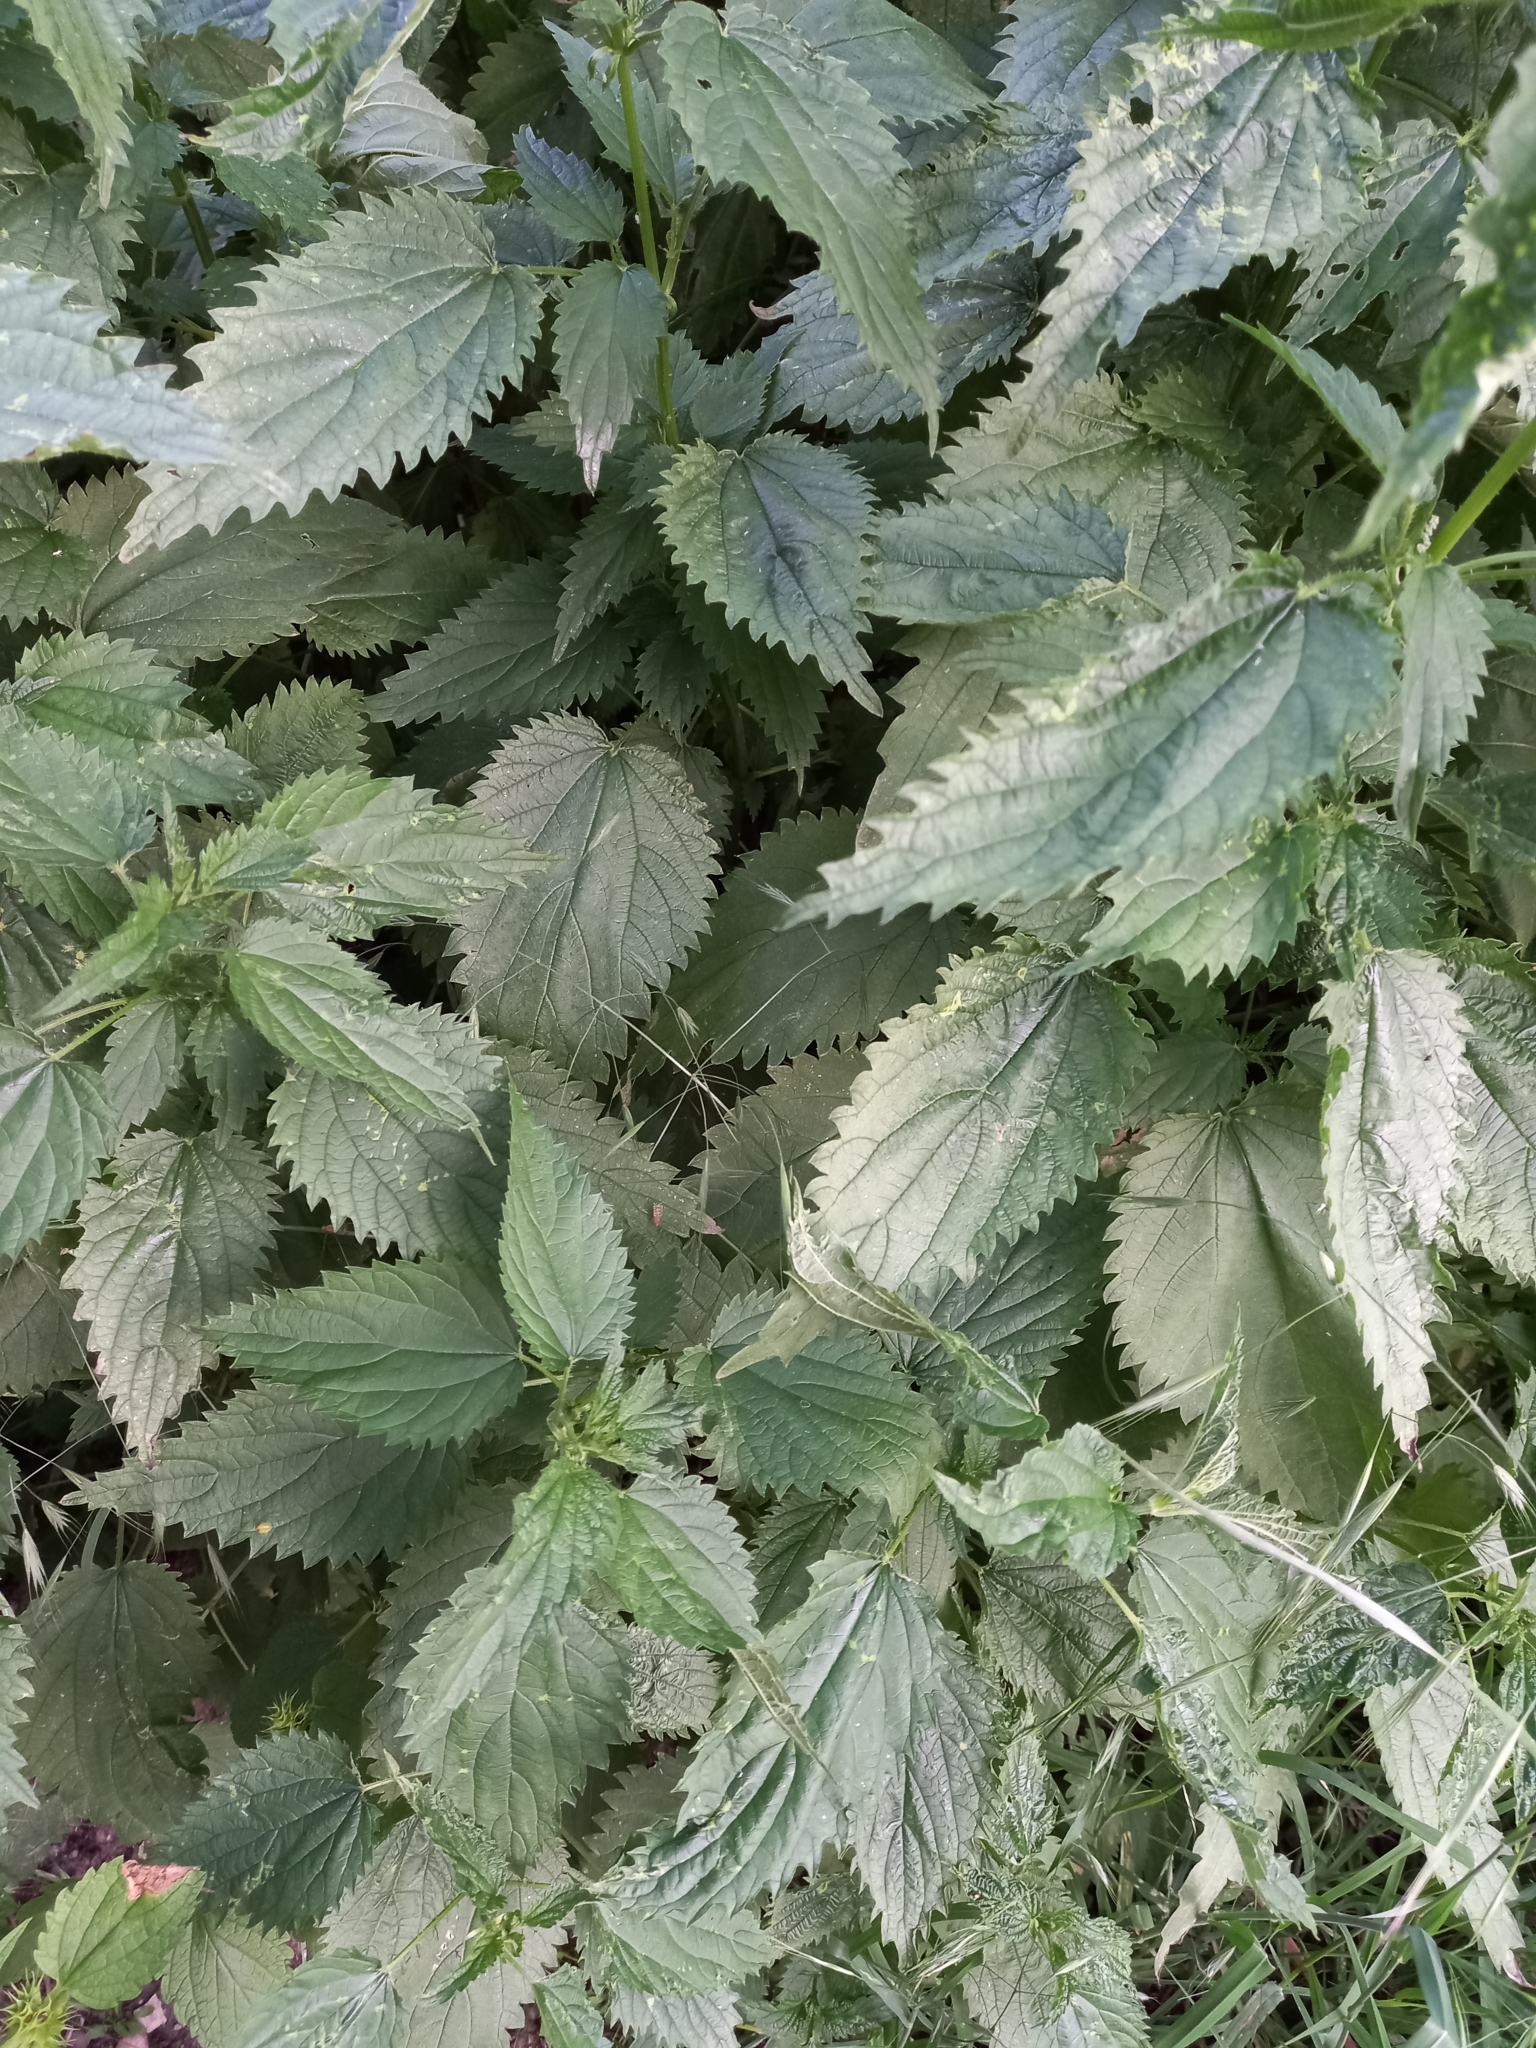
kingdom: Plantae
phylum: Tracheophyta
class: Magnoliopsida
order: Rosales
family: Urticaceae
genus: Urtica
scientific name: Urtica dioica
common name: Common nettle
